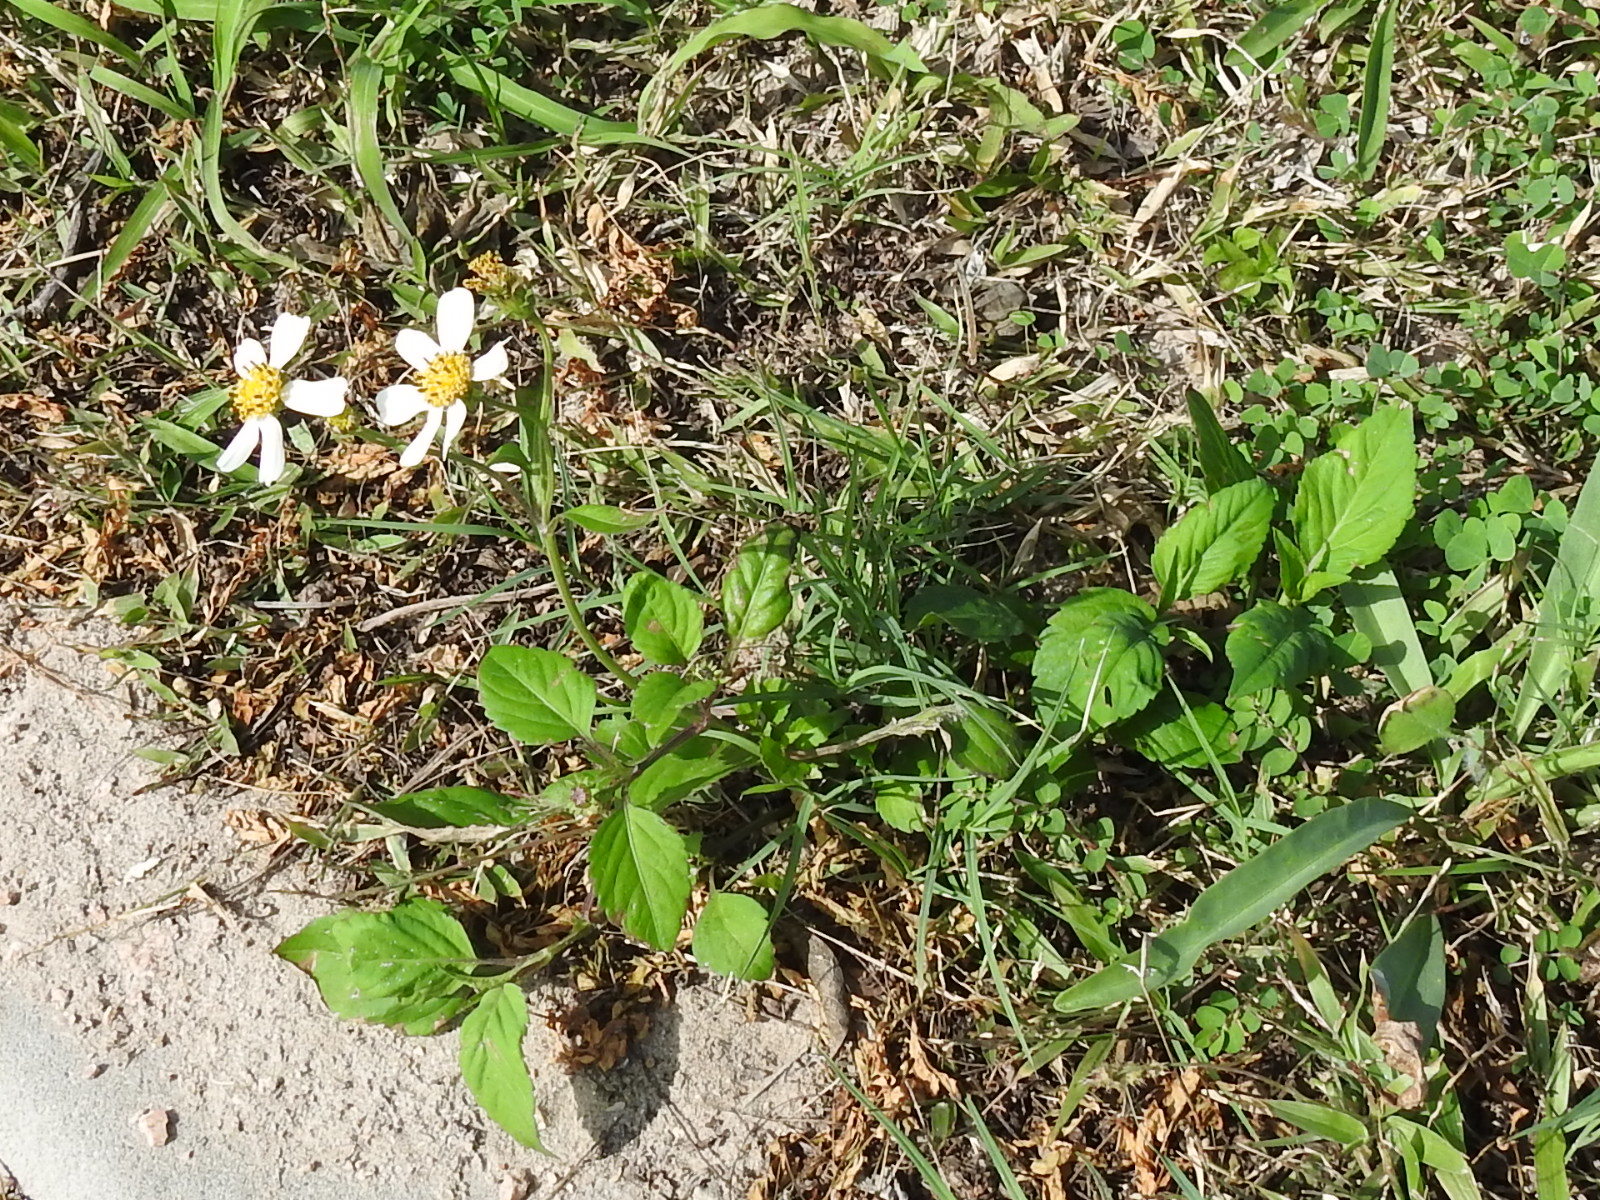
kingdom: Plantae
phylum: Tracheophyta
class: Magnoliopsida
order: Asterales
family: Asteraceae
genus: Bidens
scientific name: Bidens alba
